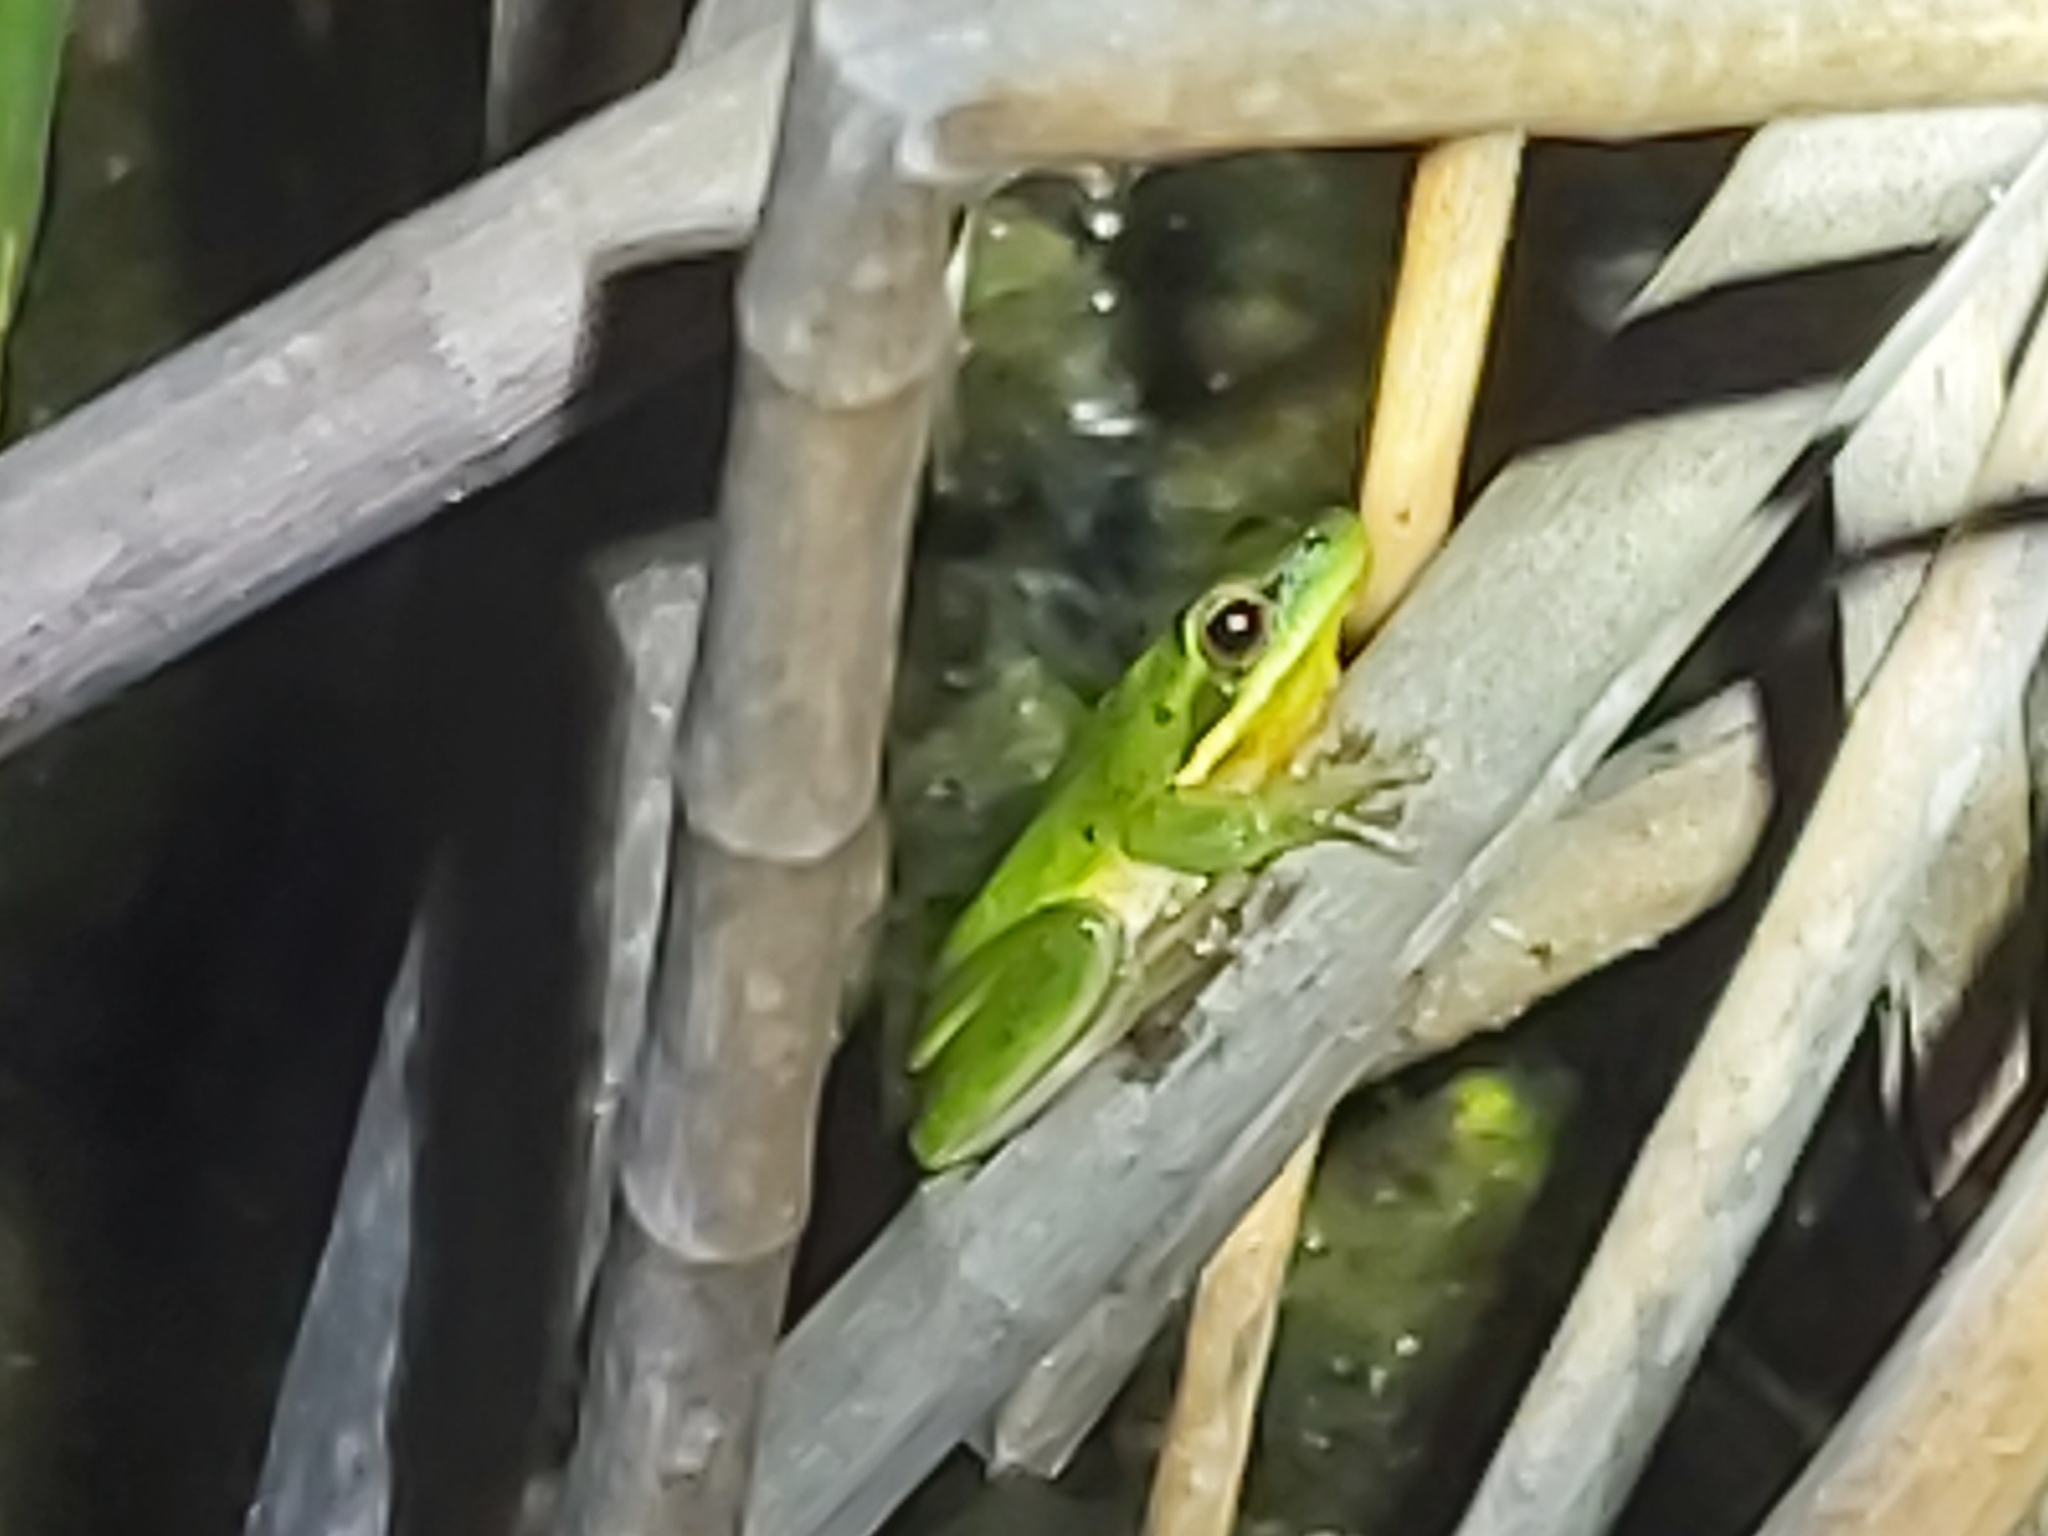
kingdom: Animalia
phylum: Chordata
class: Amphibia
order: Anura
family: Pelodryadidae
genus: Litoria
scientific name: Litoria fallax
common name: Eastern dwarf treefrog
